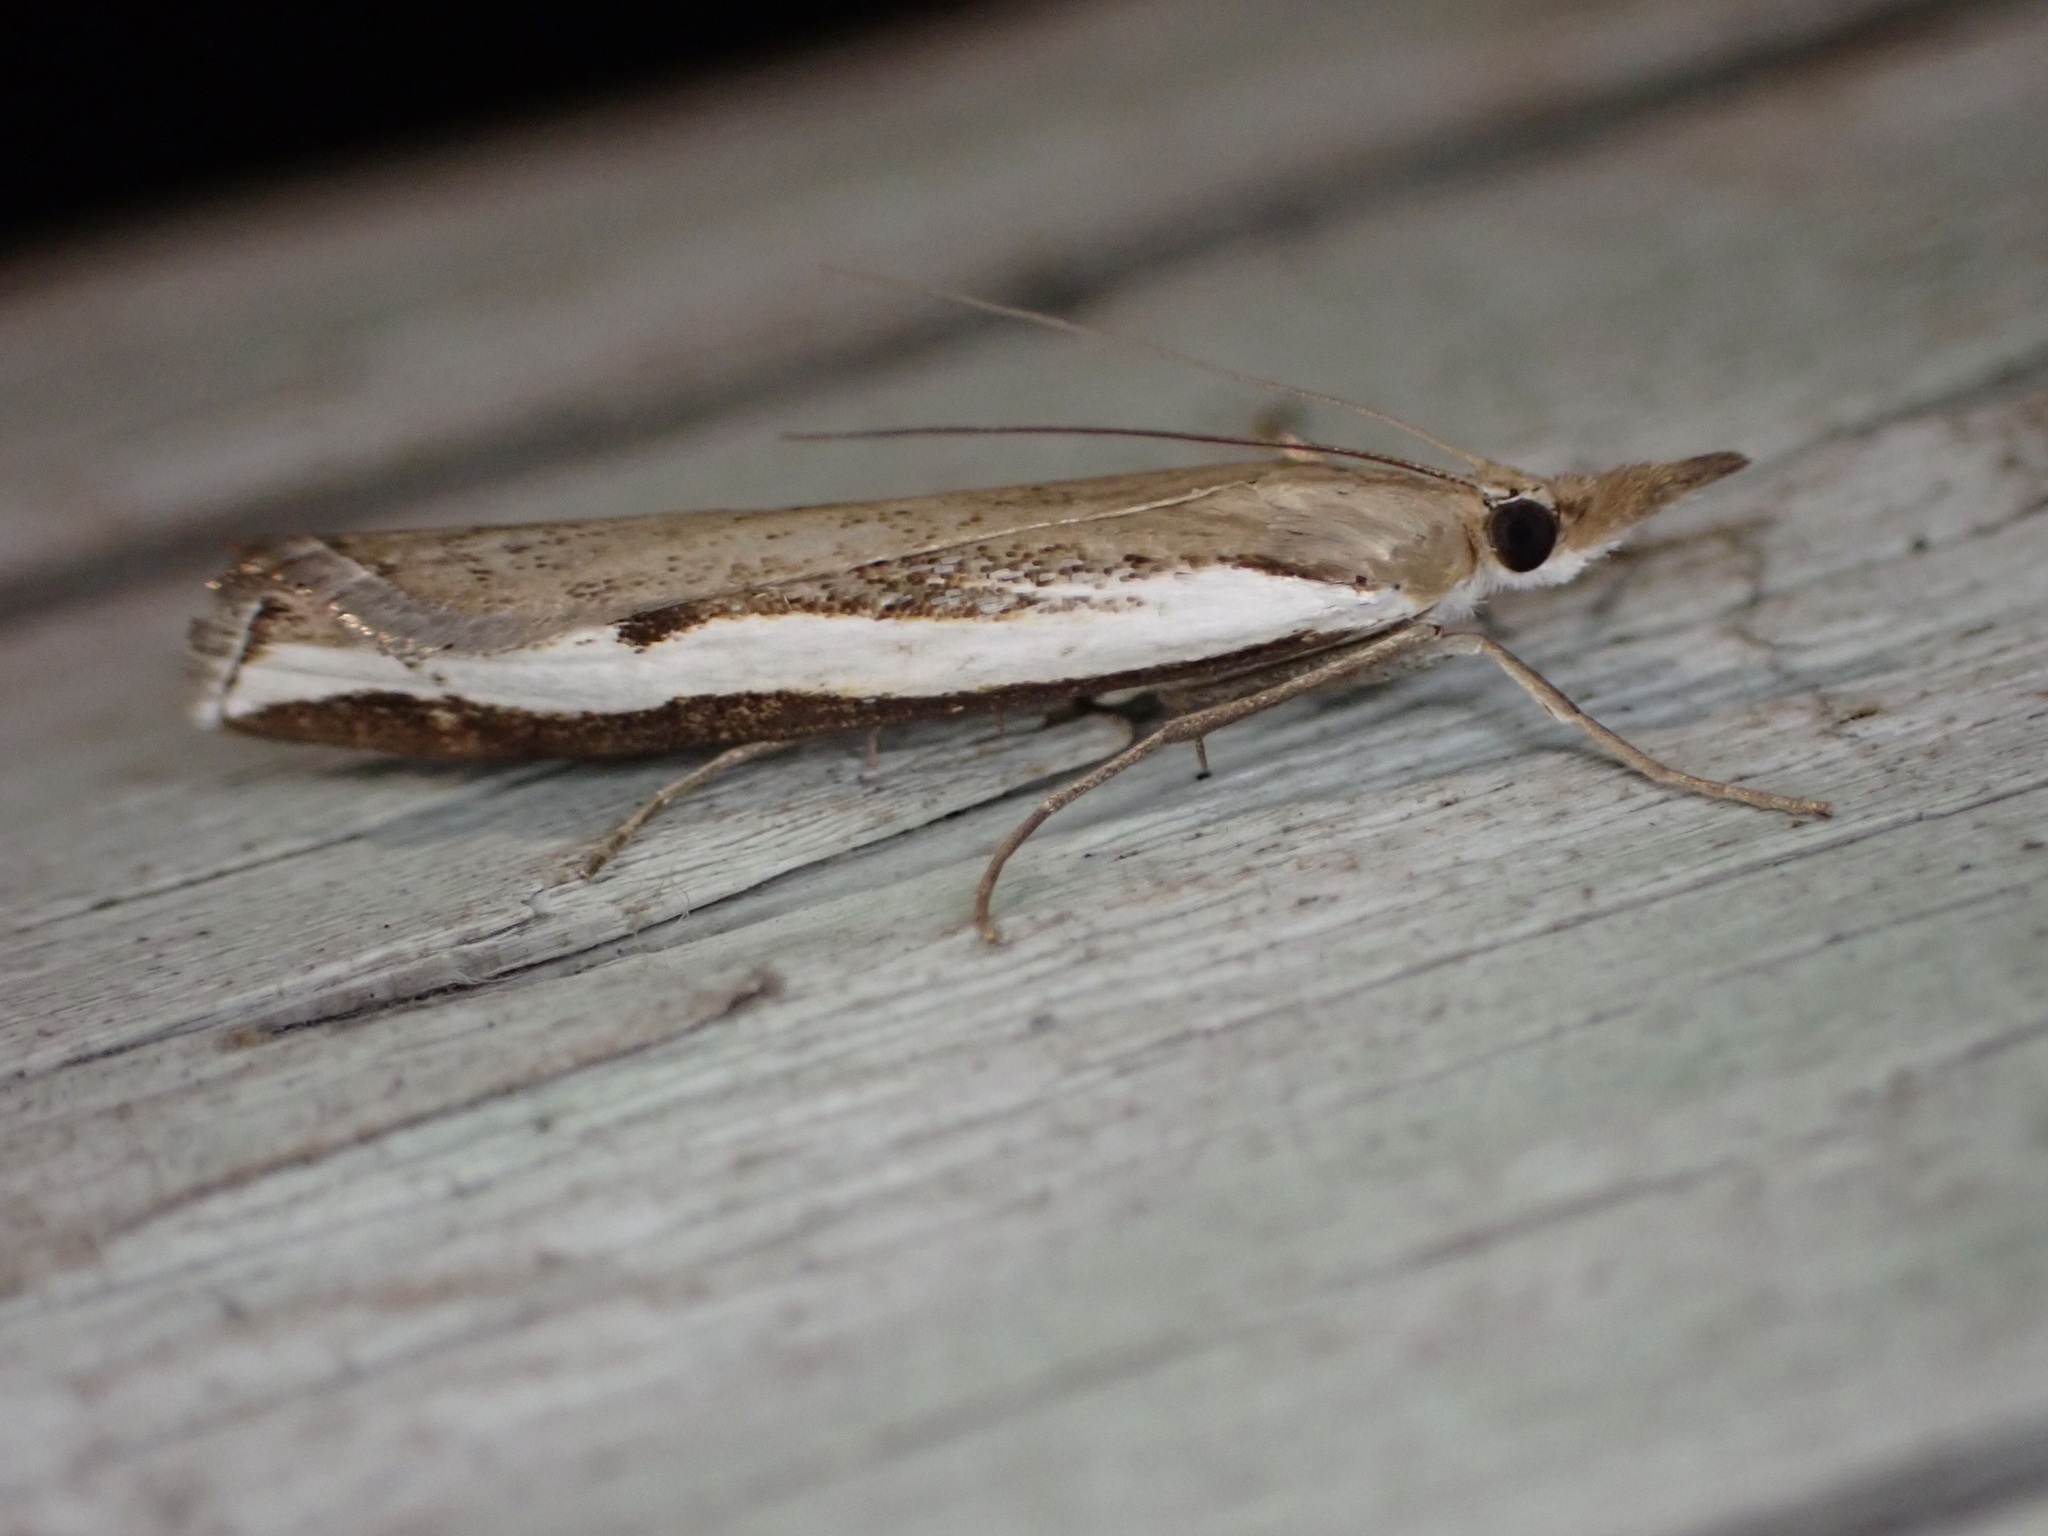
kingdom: Animalia
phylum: Arthropoda
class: Insecta
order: Lepidoptera
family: Crambidae
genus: Orocrambus
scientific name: Orocrambus flexuosellus
